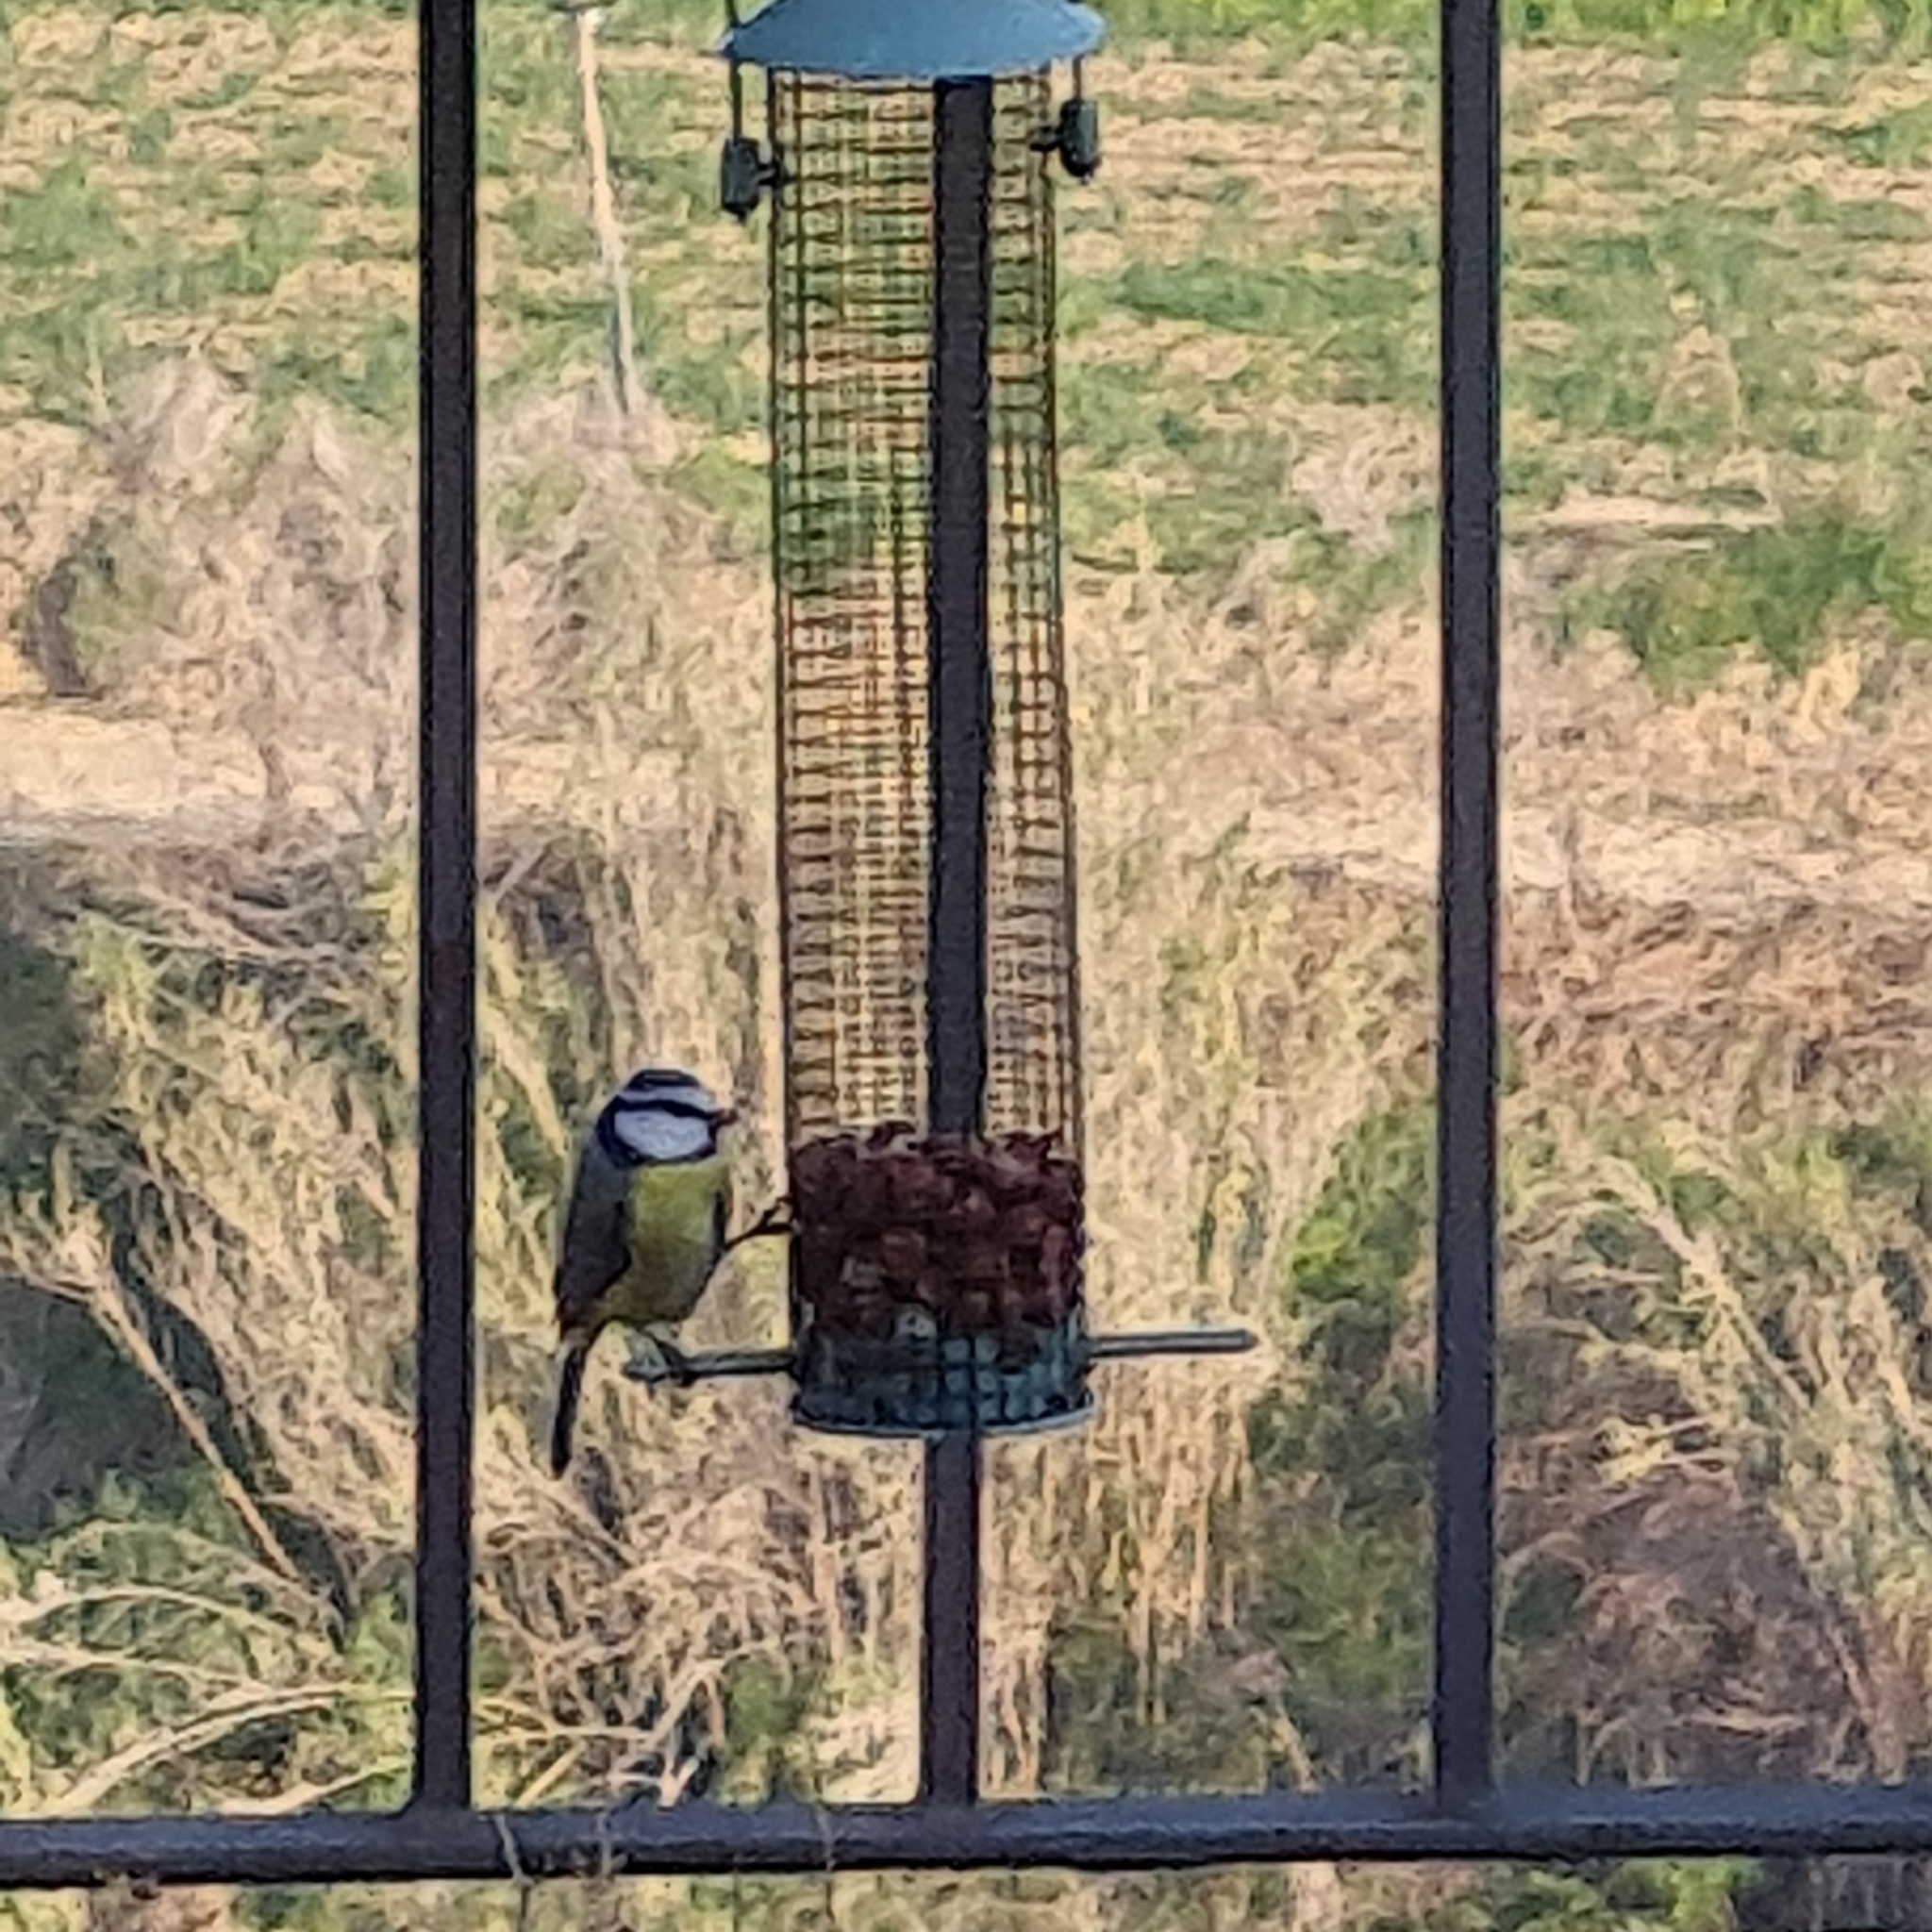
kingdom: Animalia
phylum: Chordata
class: Aves
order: Passeriformes
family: Paridae
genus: Cyanistes
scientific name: Cyanistes caeruleus
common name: Eurasian blue tit
